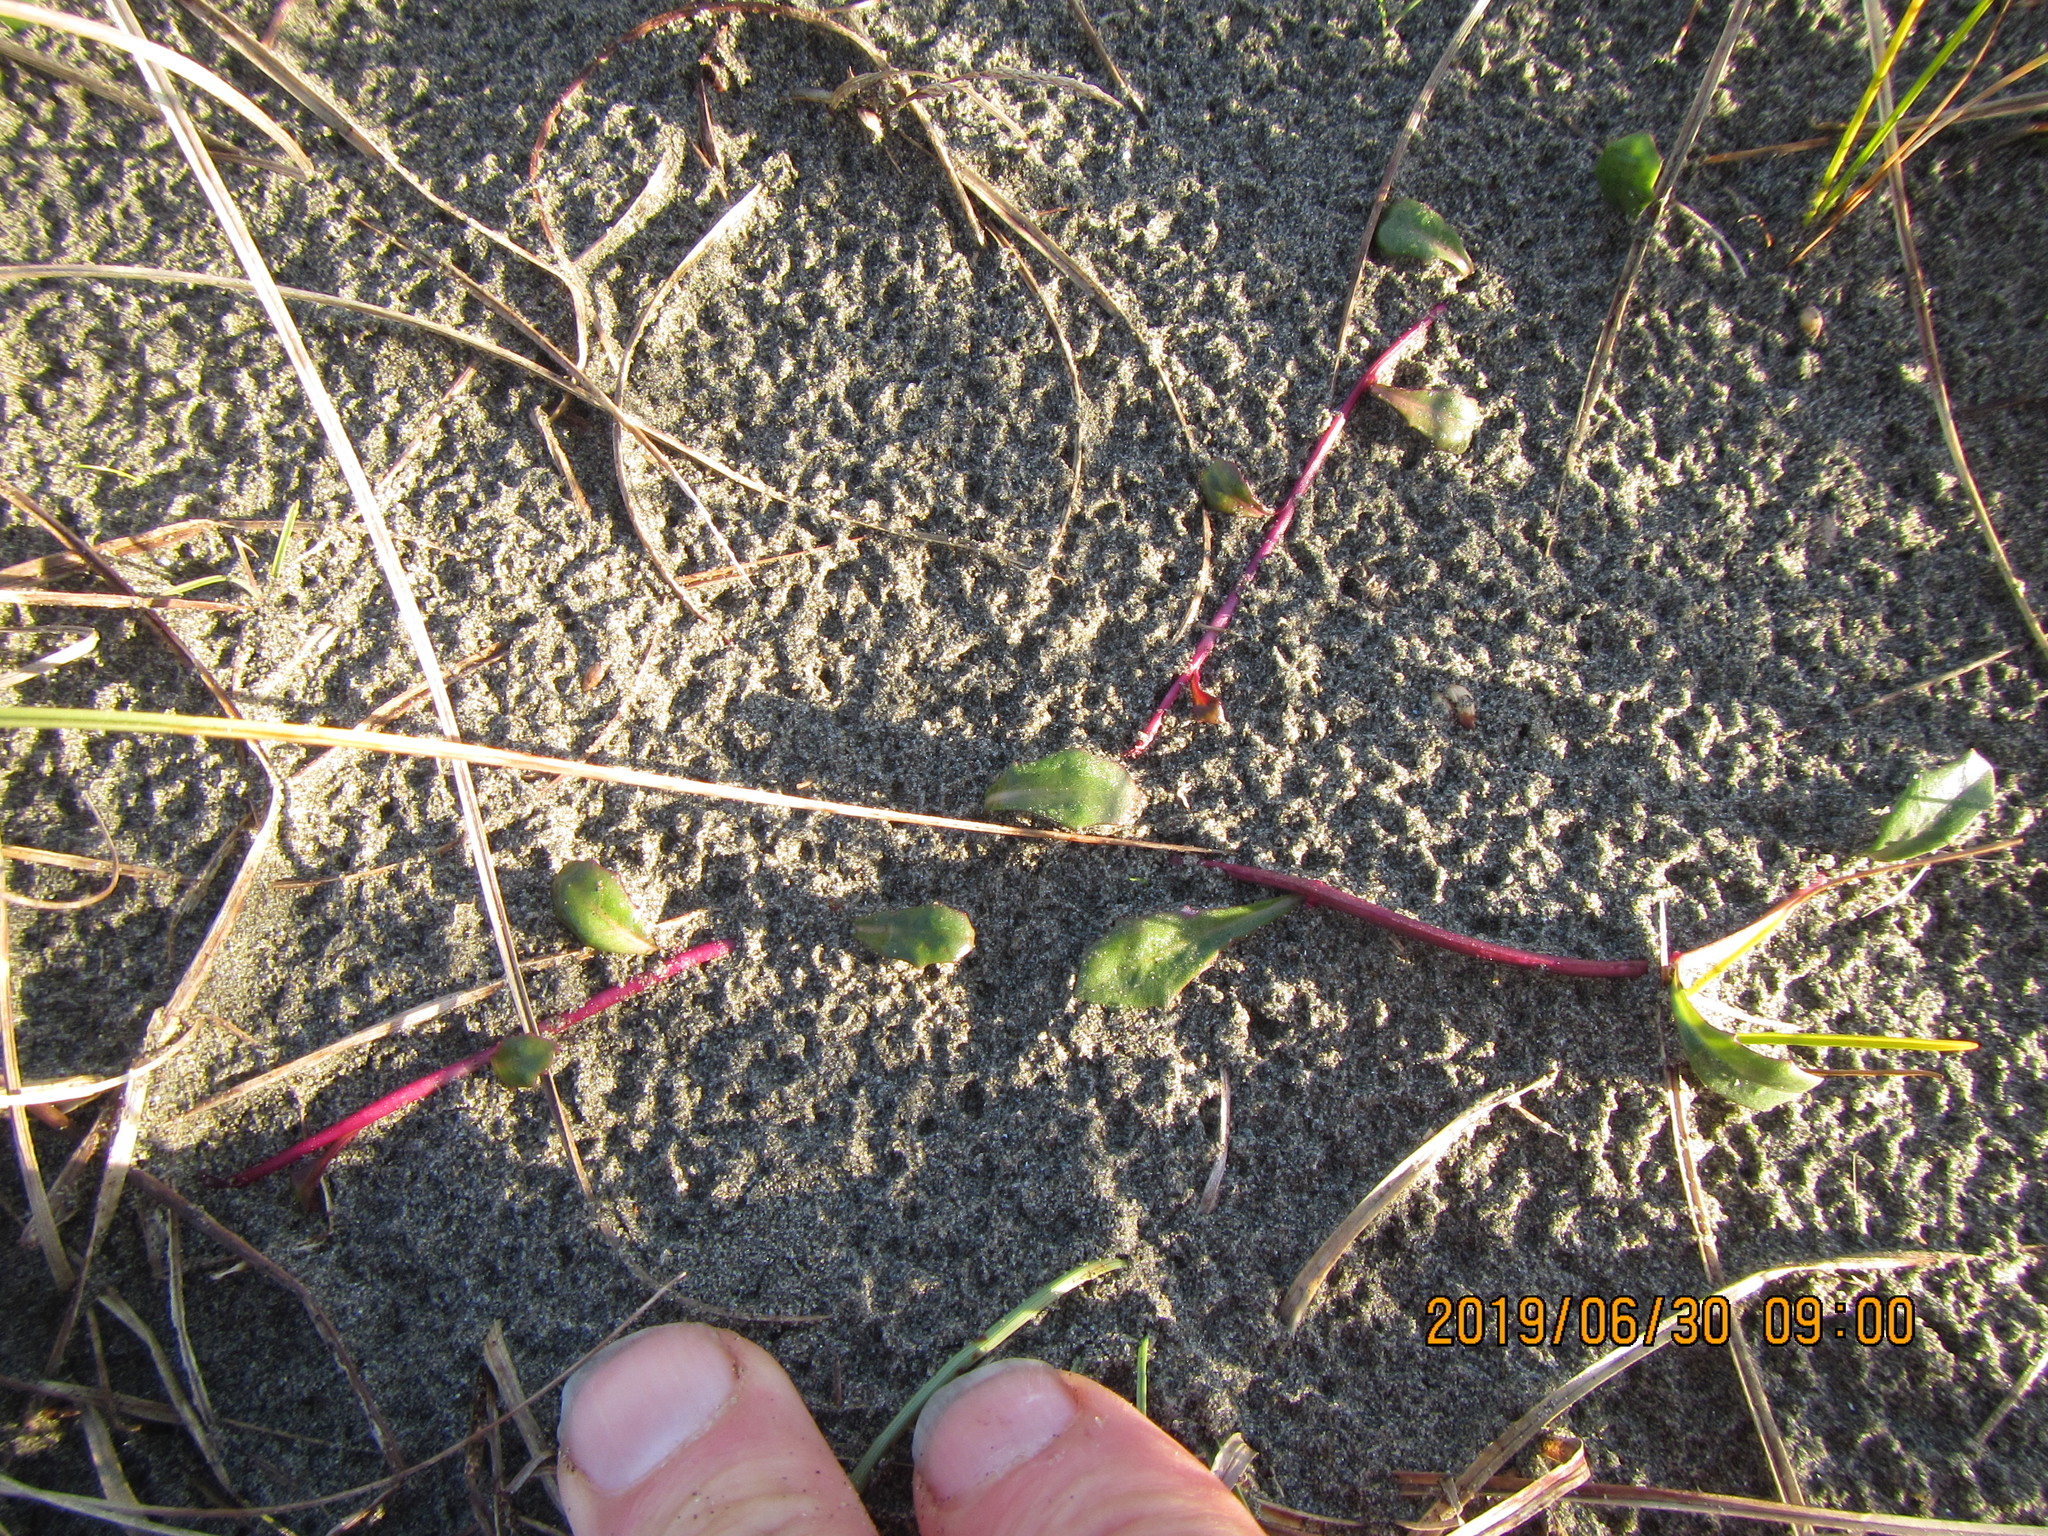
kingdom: Plantae
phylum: Tracheophyta
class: Magnoliopsida
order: Asterales
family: Campanulaceae
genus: Lobelia
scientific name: Lobelia anceps
